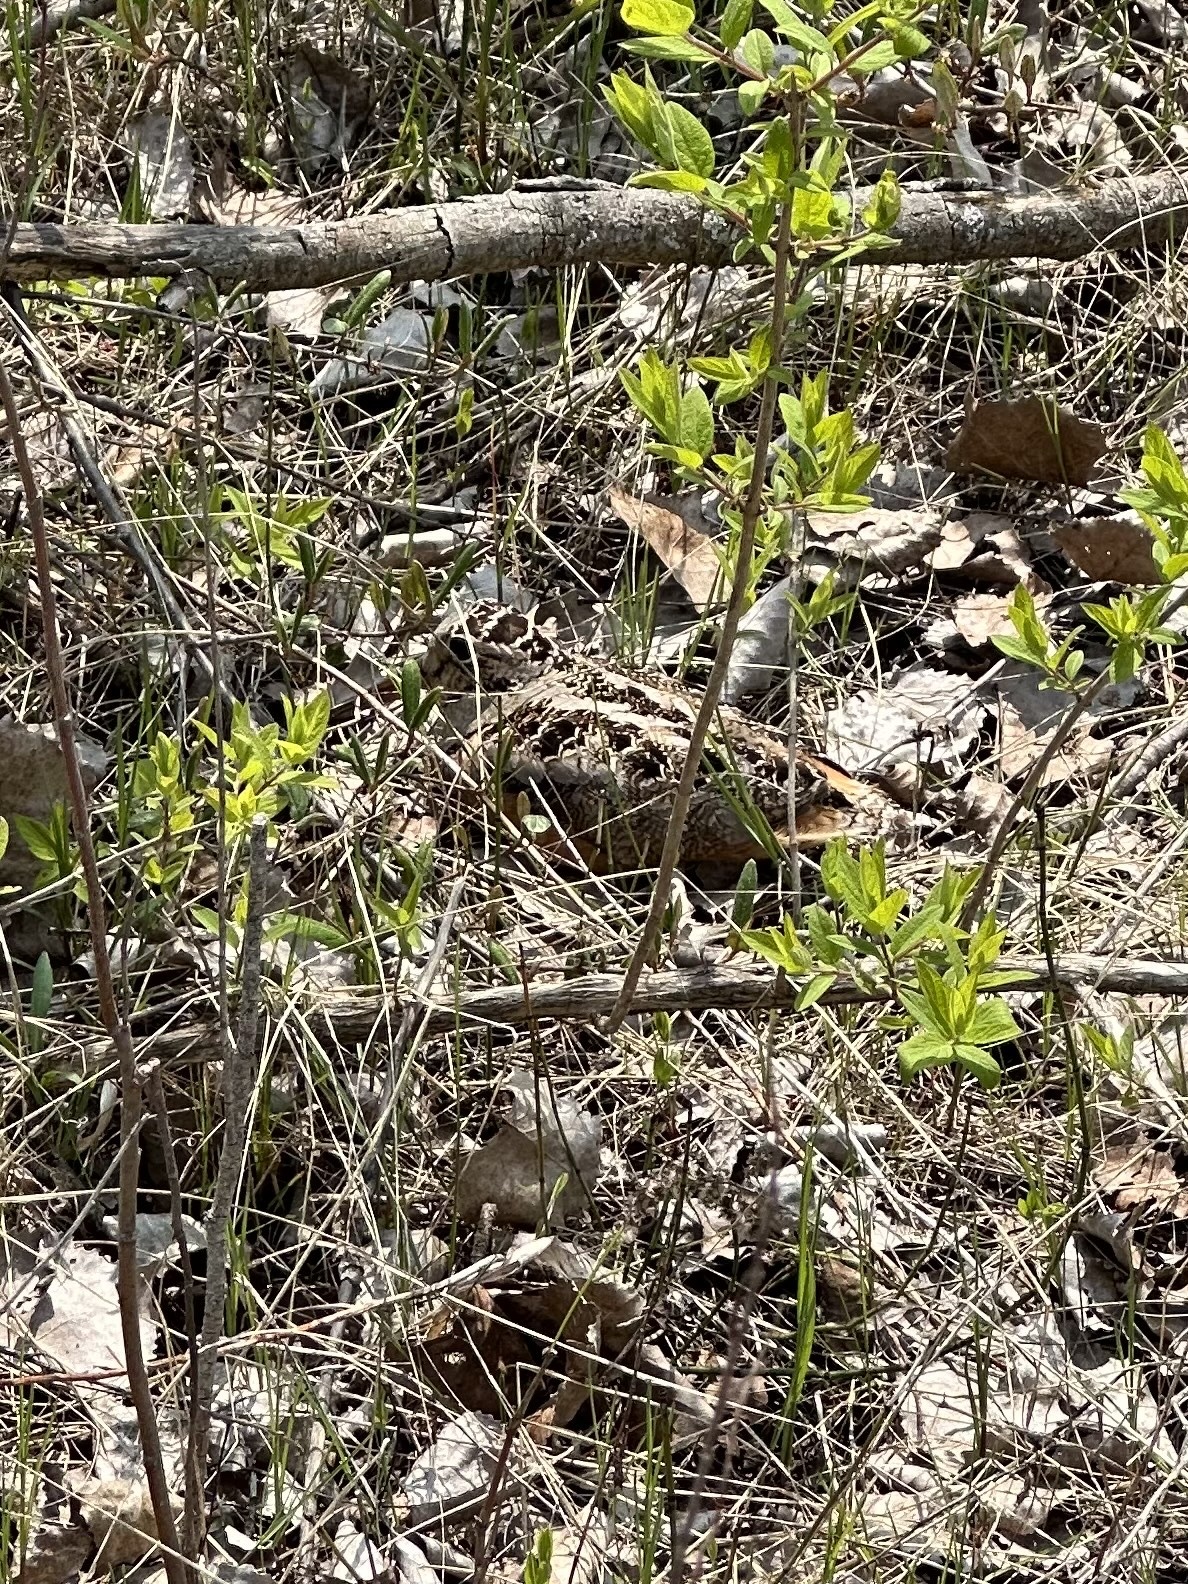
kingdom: Animalia
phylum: Chordata
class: Aves
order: Charadriiformes
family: Scolopacidae
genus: Scolopax
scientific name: Scolopax minor
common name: American woodcock
